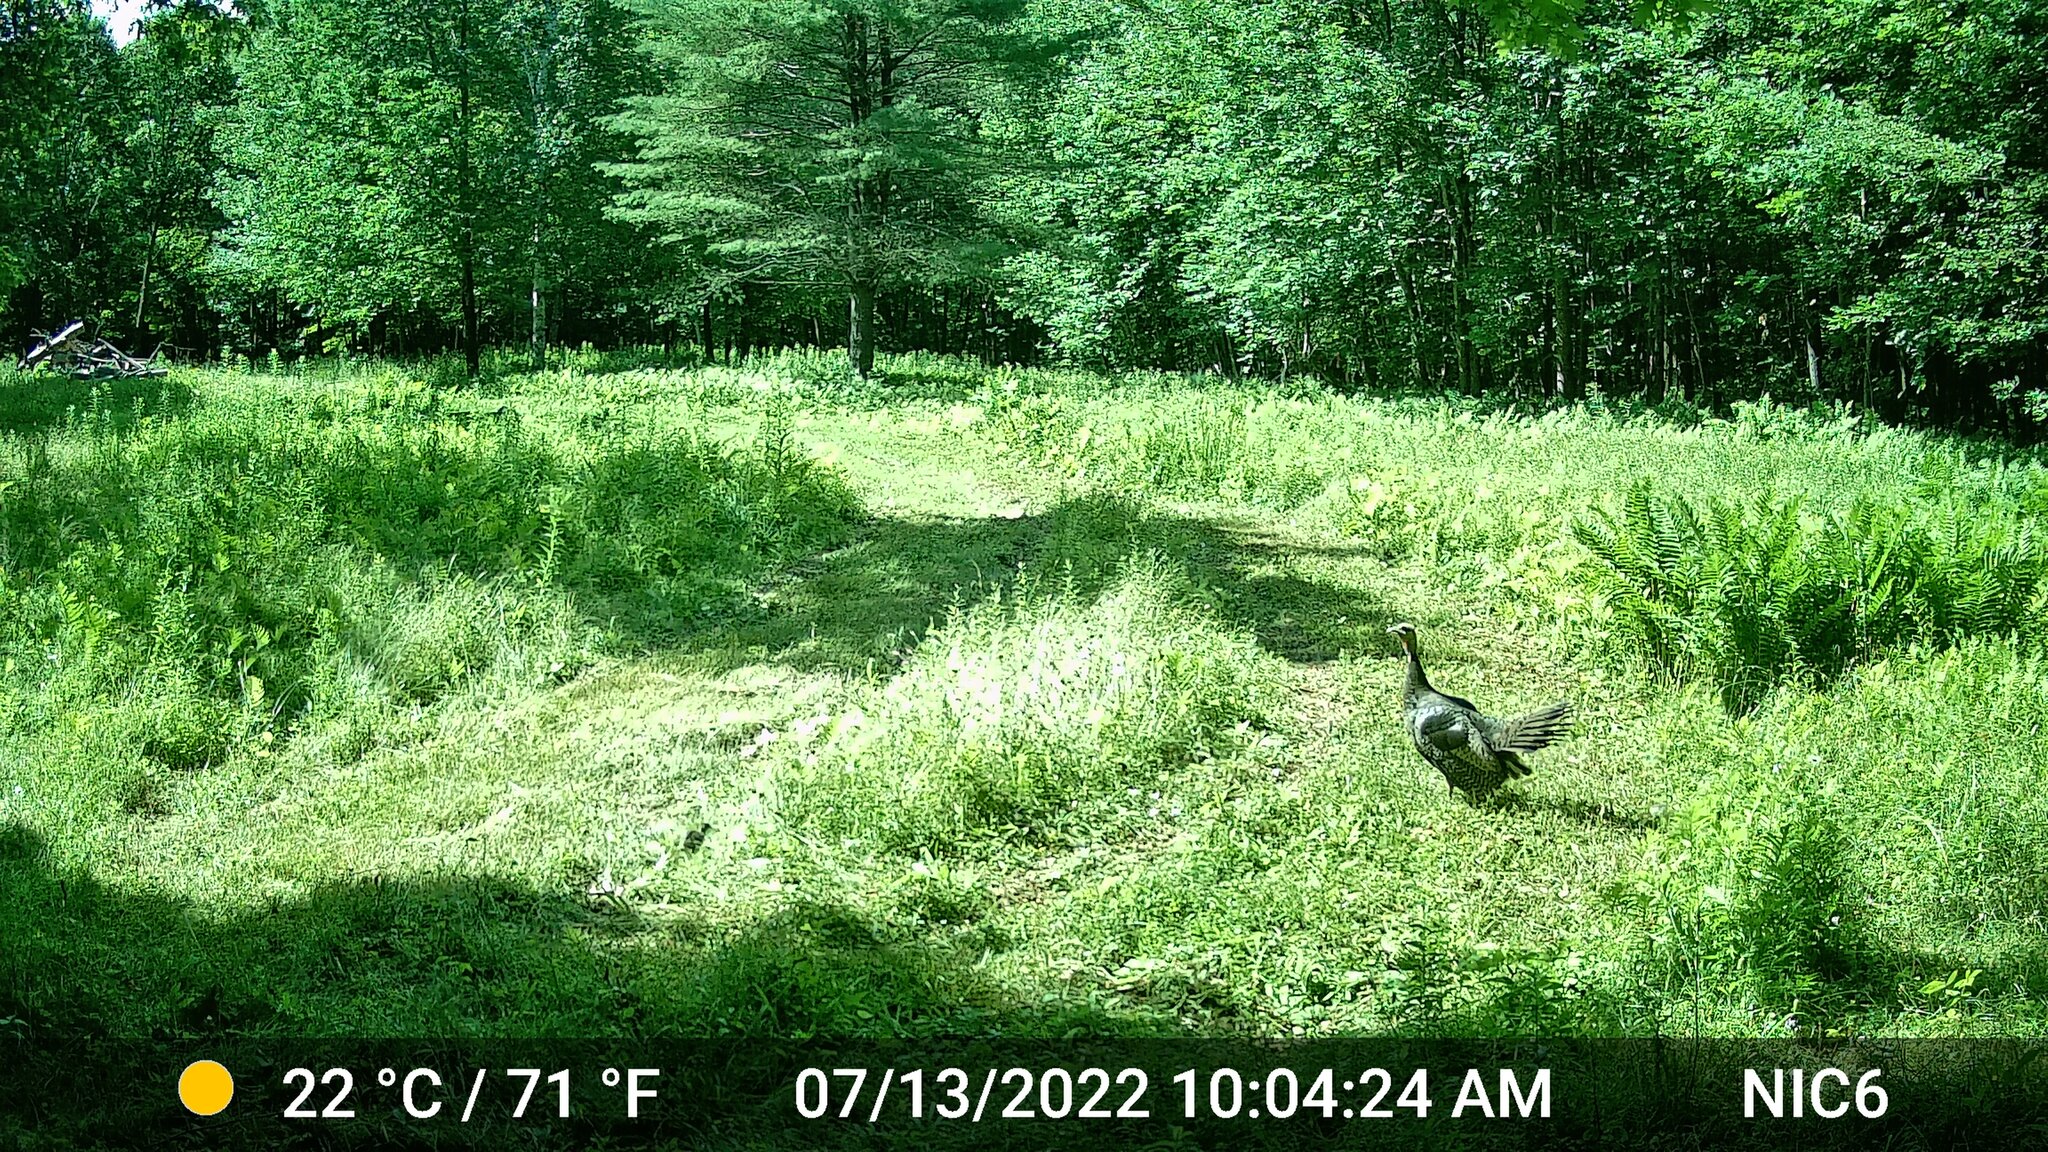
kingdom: Animalia
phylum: Chordata
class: Aves
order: Galliformes
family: Phasianidae
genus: Meleagris
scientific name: Meleagris gallopavo
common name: Wild turkey
